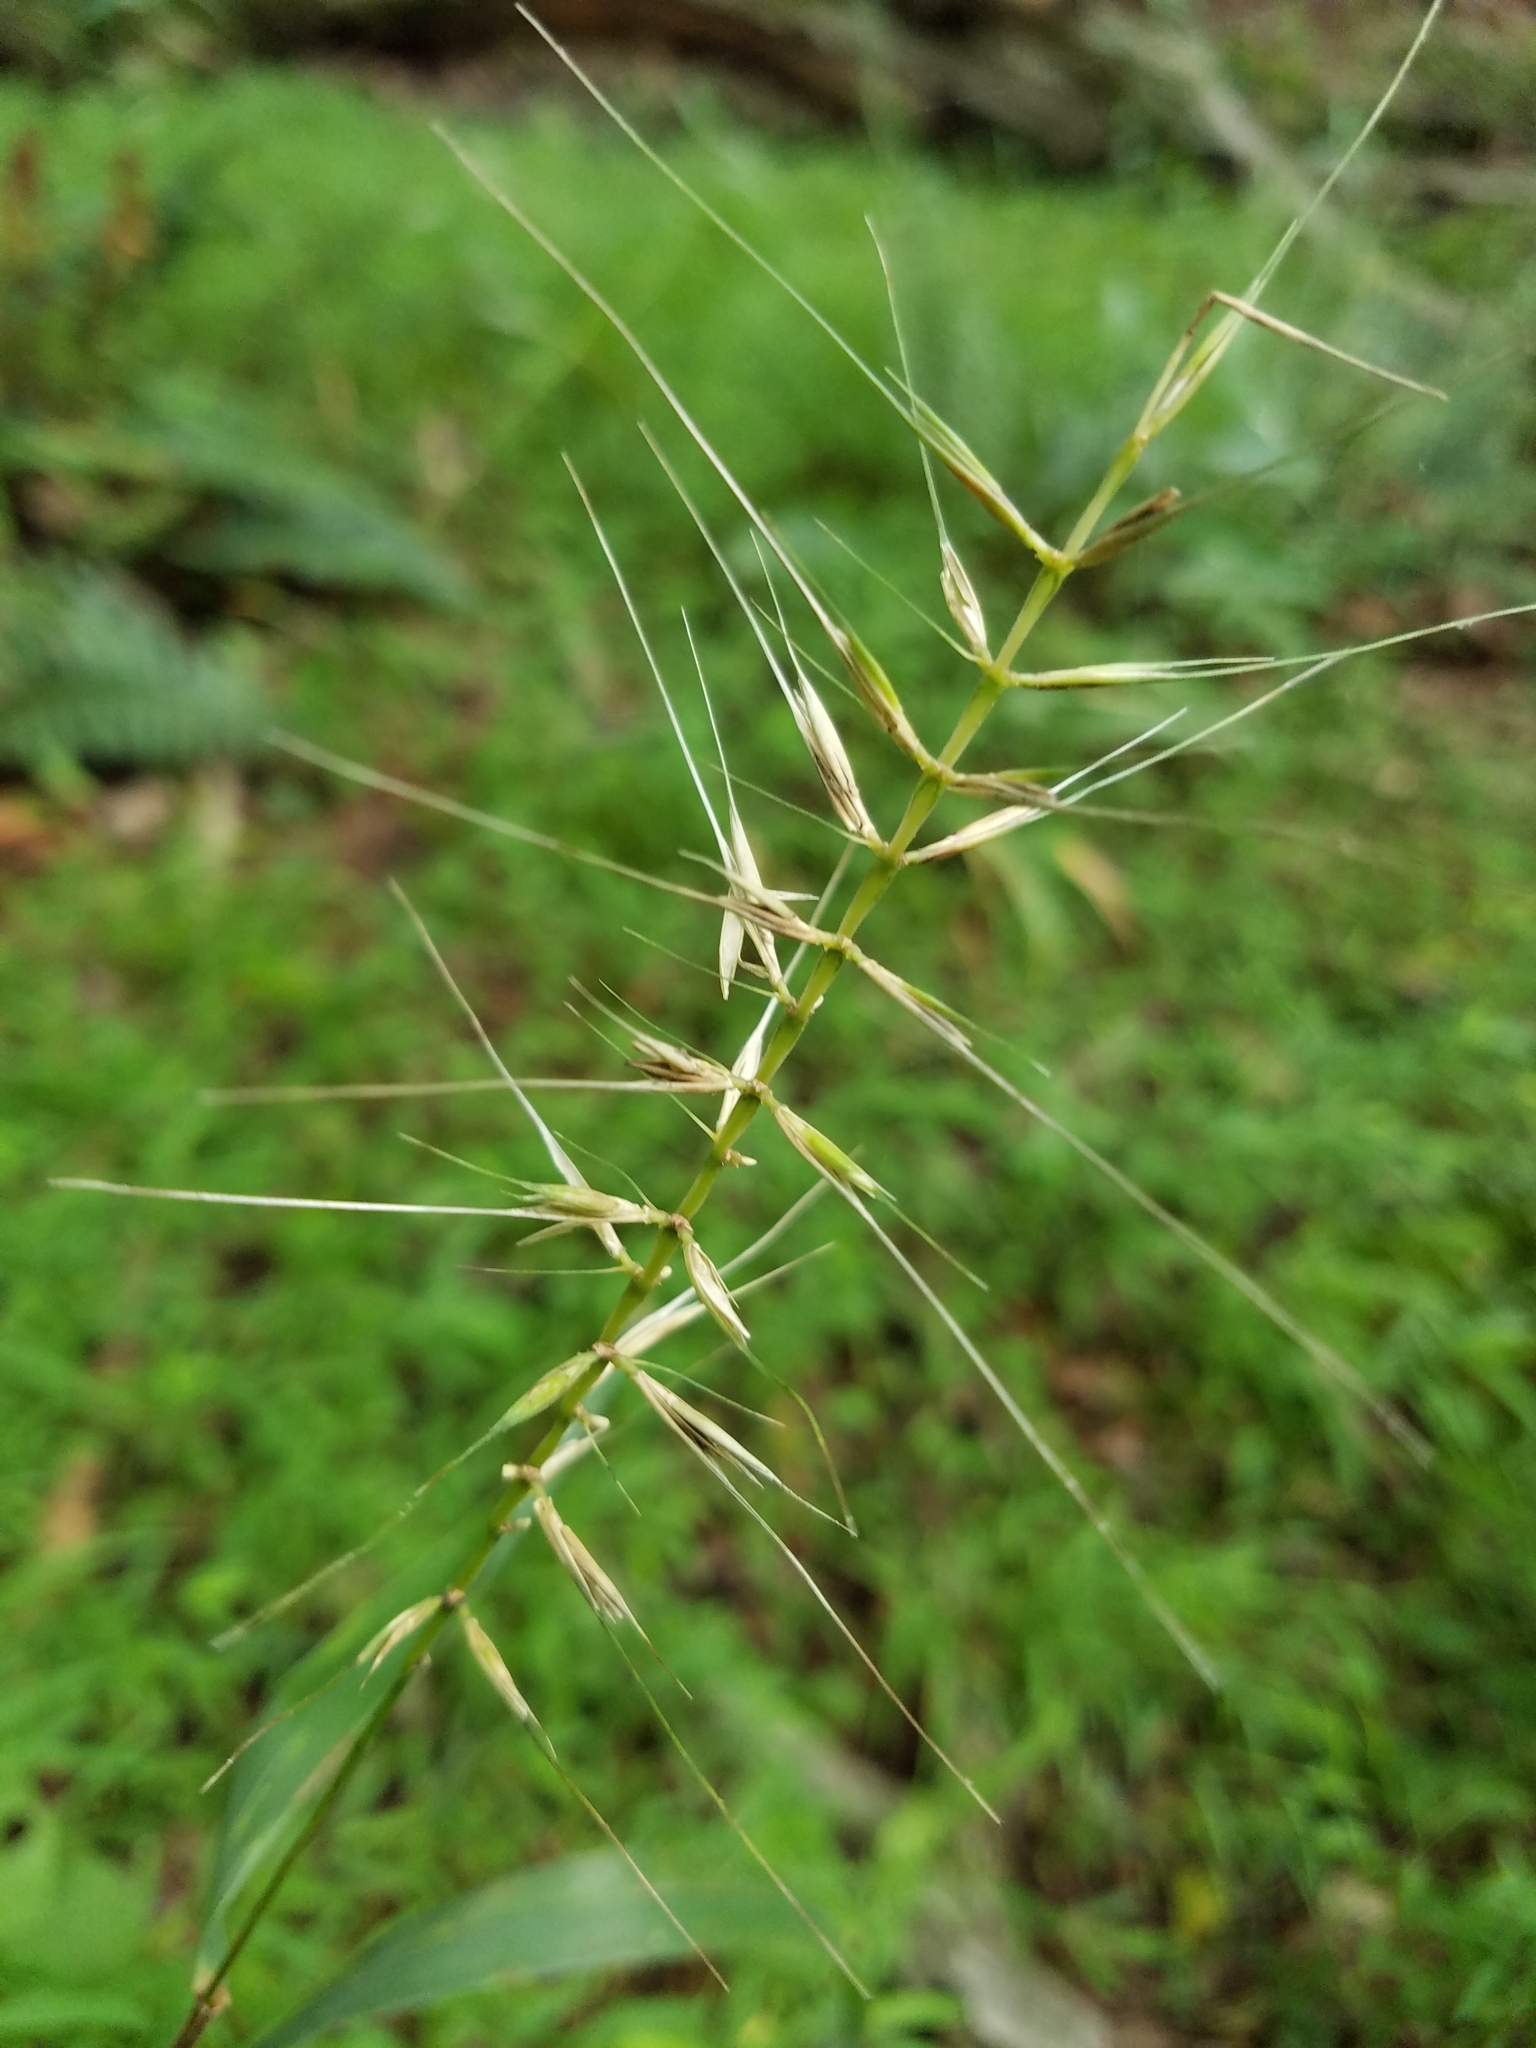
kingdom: Plantae
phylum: Tracheophyta
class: Liliopsida
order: Poales
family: Poaceae
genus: Elymus
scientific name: Elymus hystrix
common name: Bottlebrush grass
